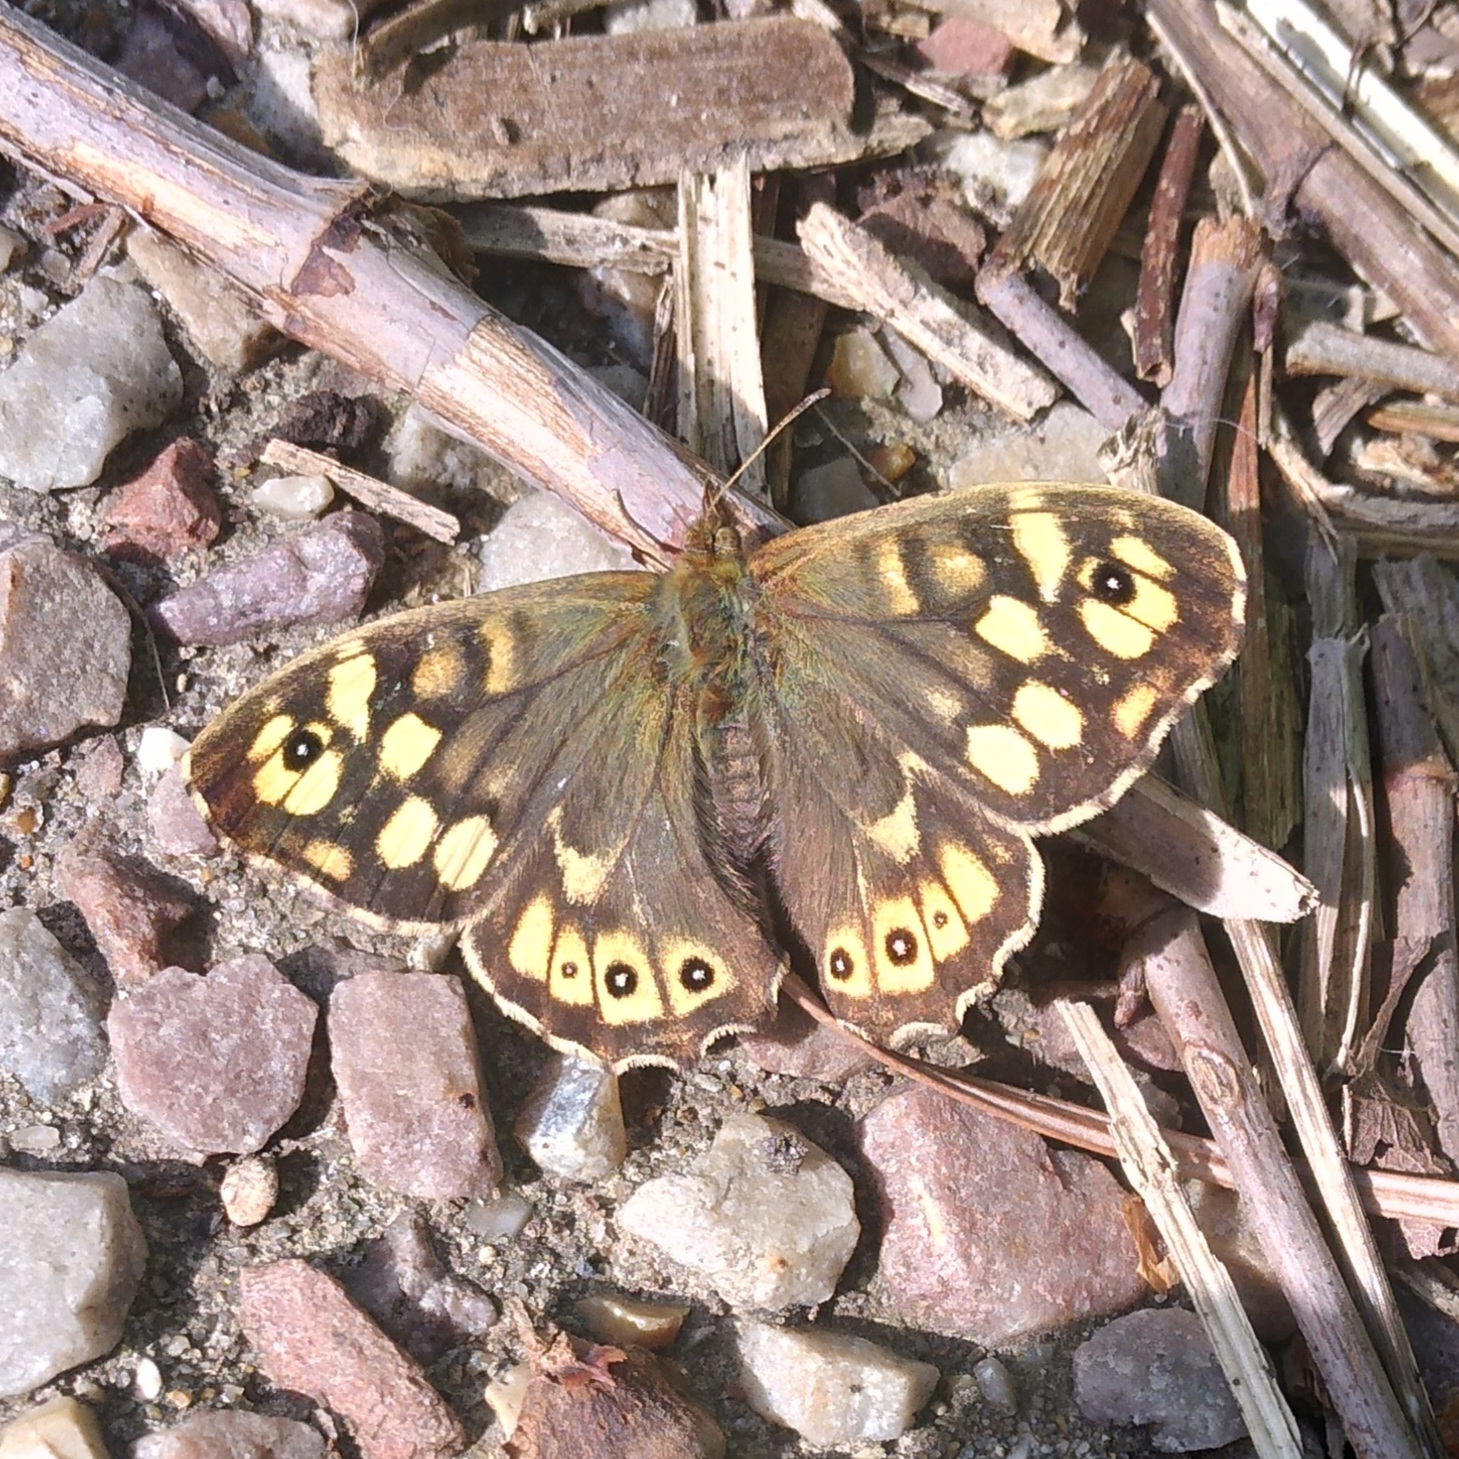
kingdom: Animalia
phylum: Arthropoda
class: Insecta
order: Lepidoptera
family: Nymphalidae
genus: Pararge
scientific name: Pararge aegeria
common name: Speckled wood
